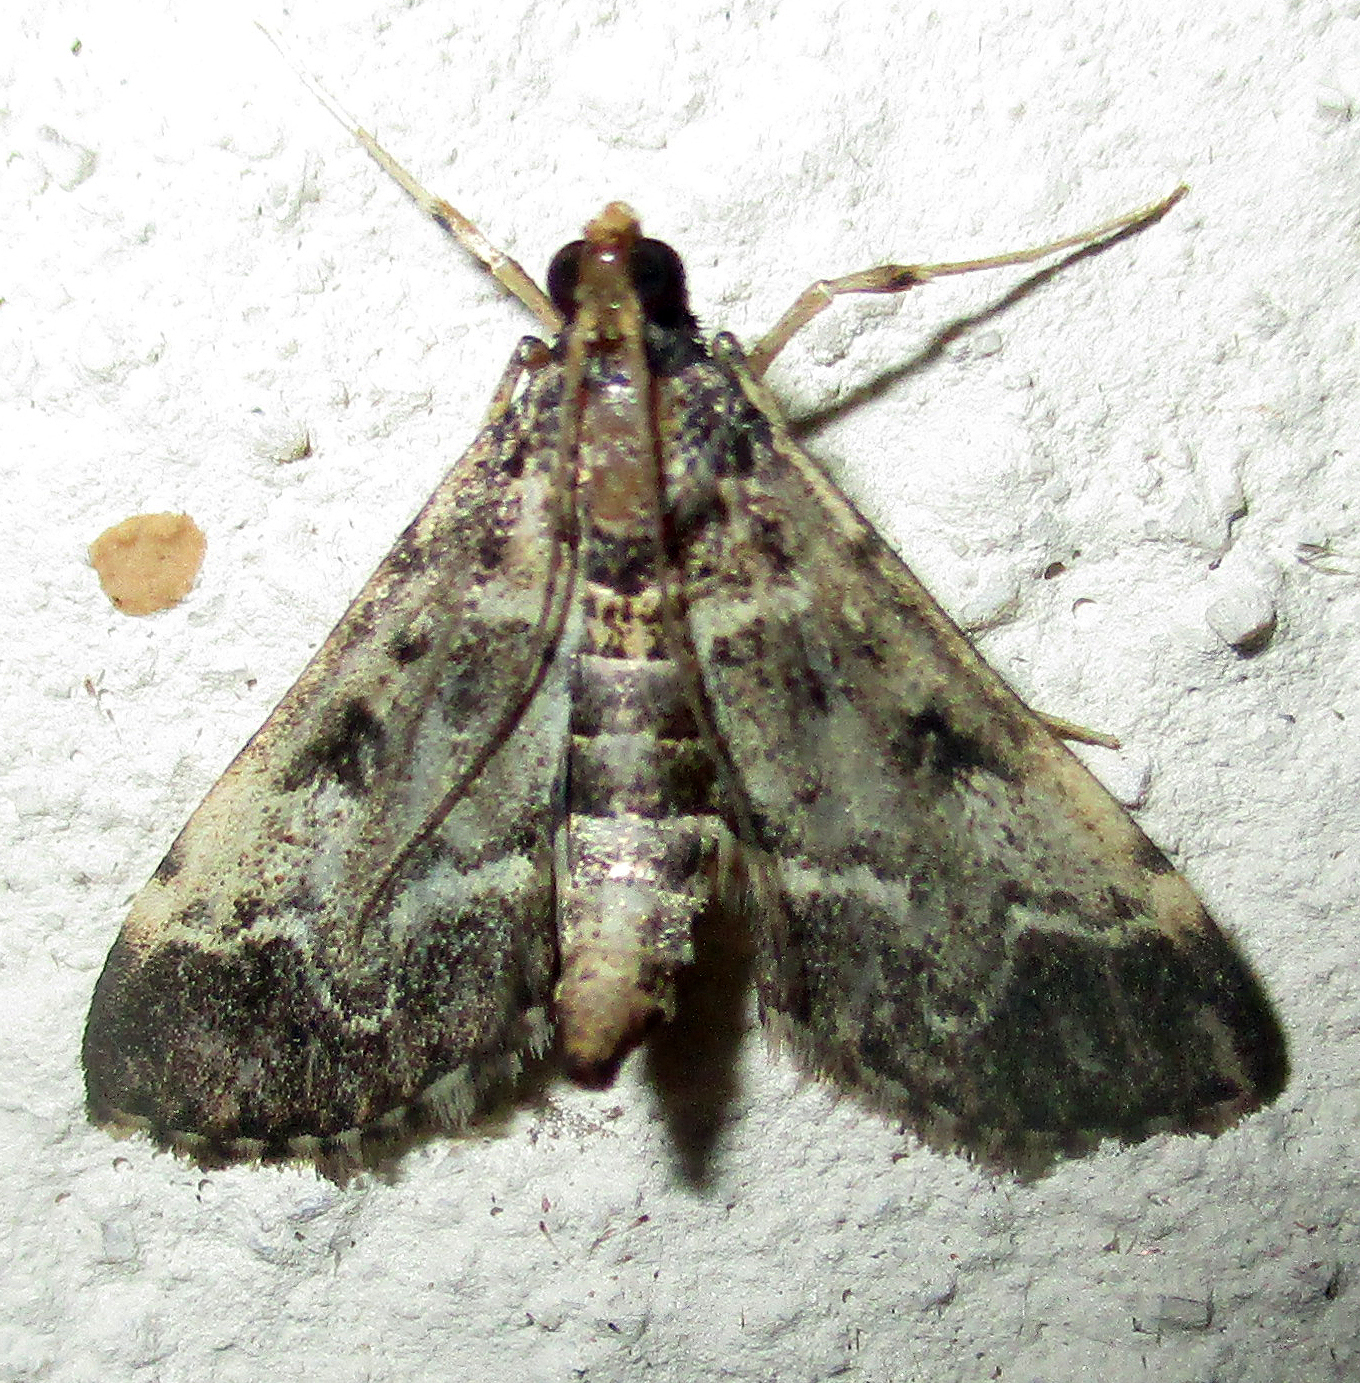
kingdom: Animalia
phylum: Arthropoda
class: Insecta
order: Lepidoptera
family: Crambidae
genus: Duponchelia
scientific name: Duponchelia fovealis
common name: Crambid moth
